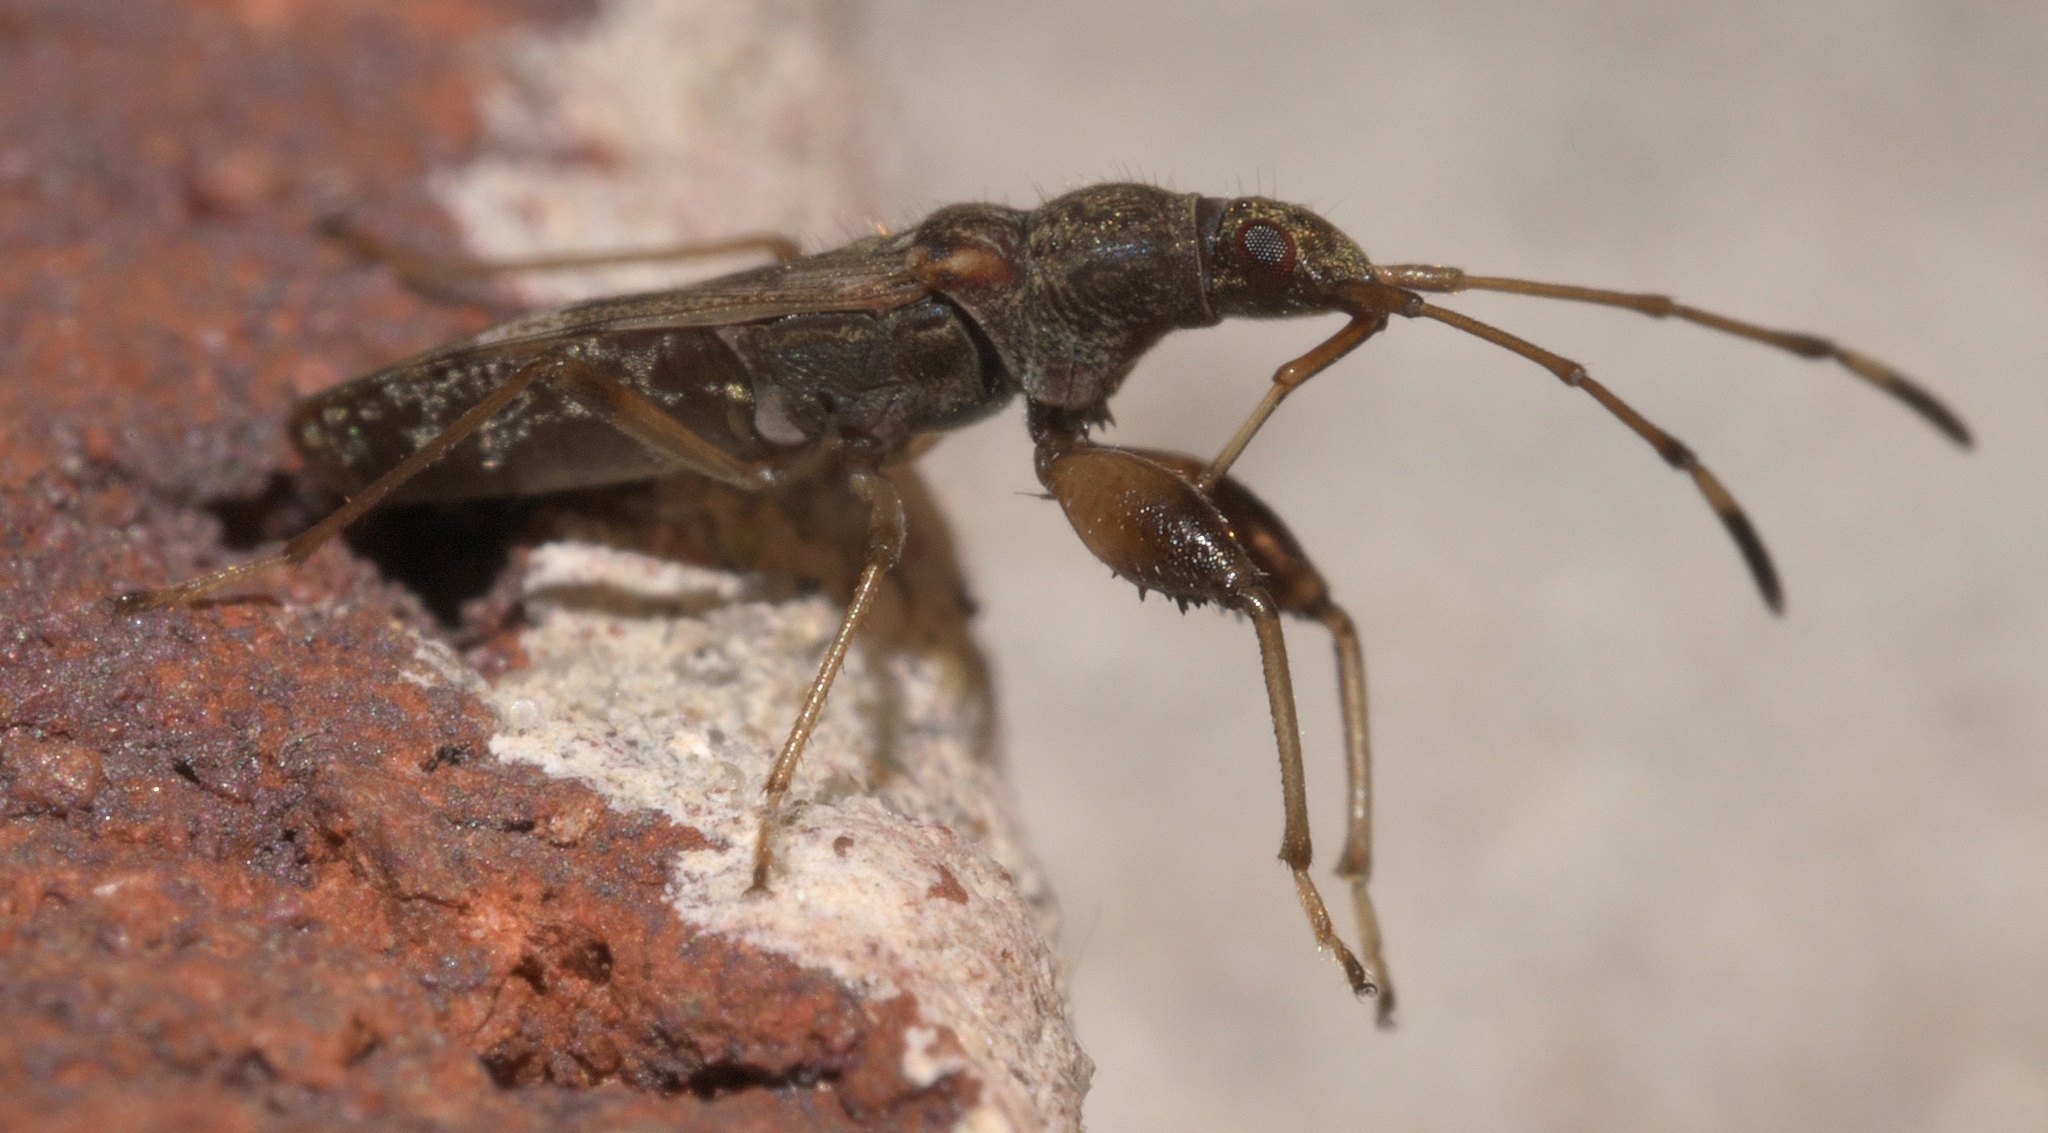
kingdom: Animalia
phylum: Arthropoda
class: Insecta
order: Hemiptera
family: Rhyparochromidae
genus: Neopamera
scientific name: Neopamera albocincta
